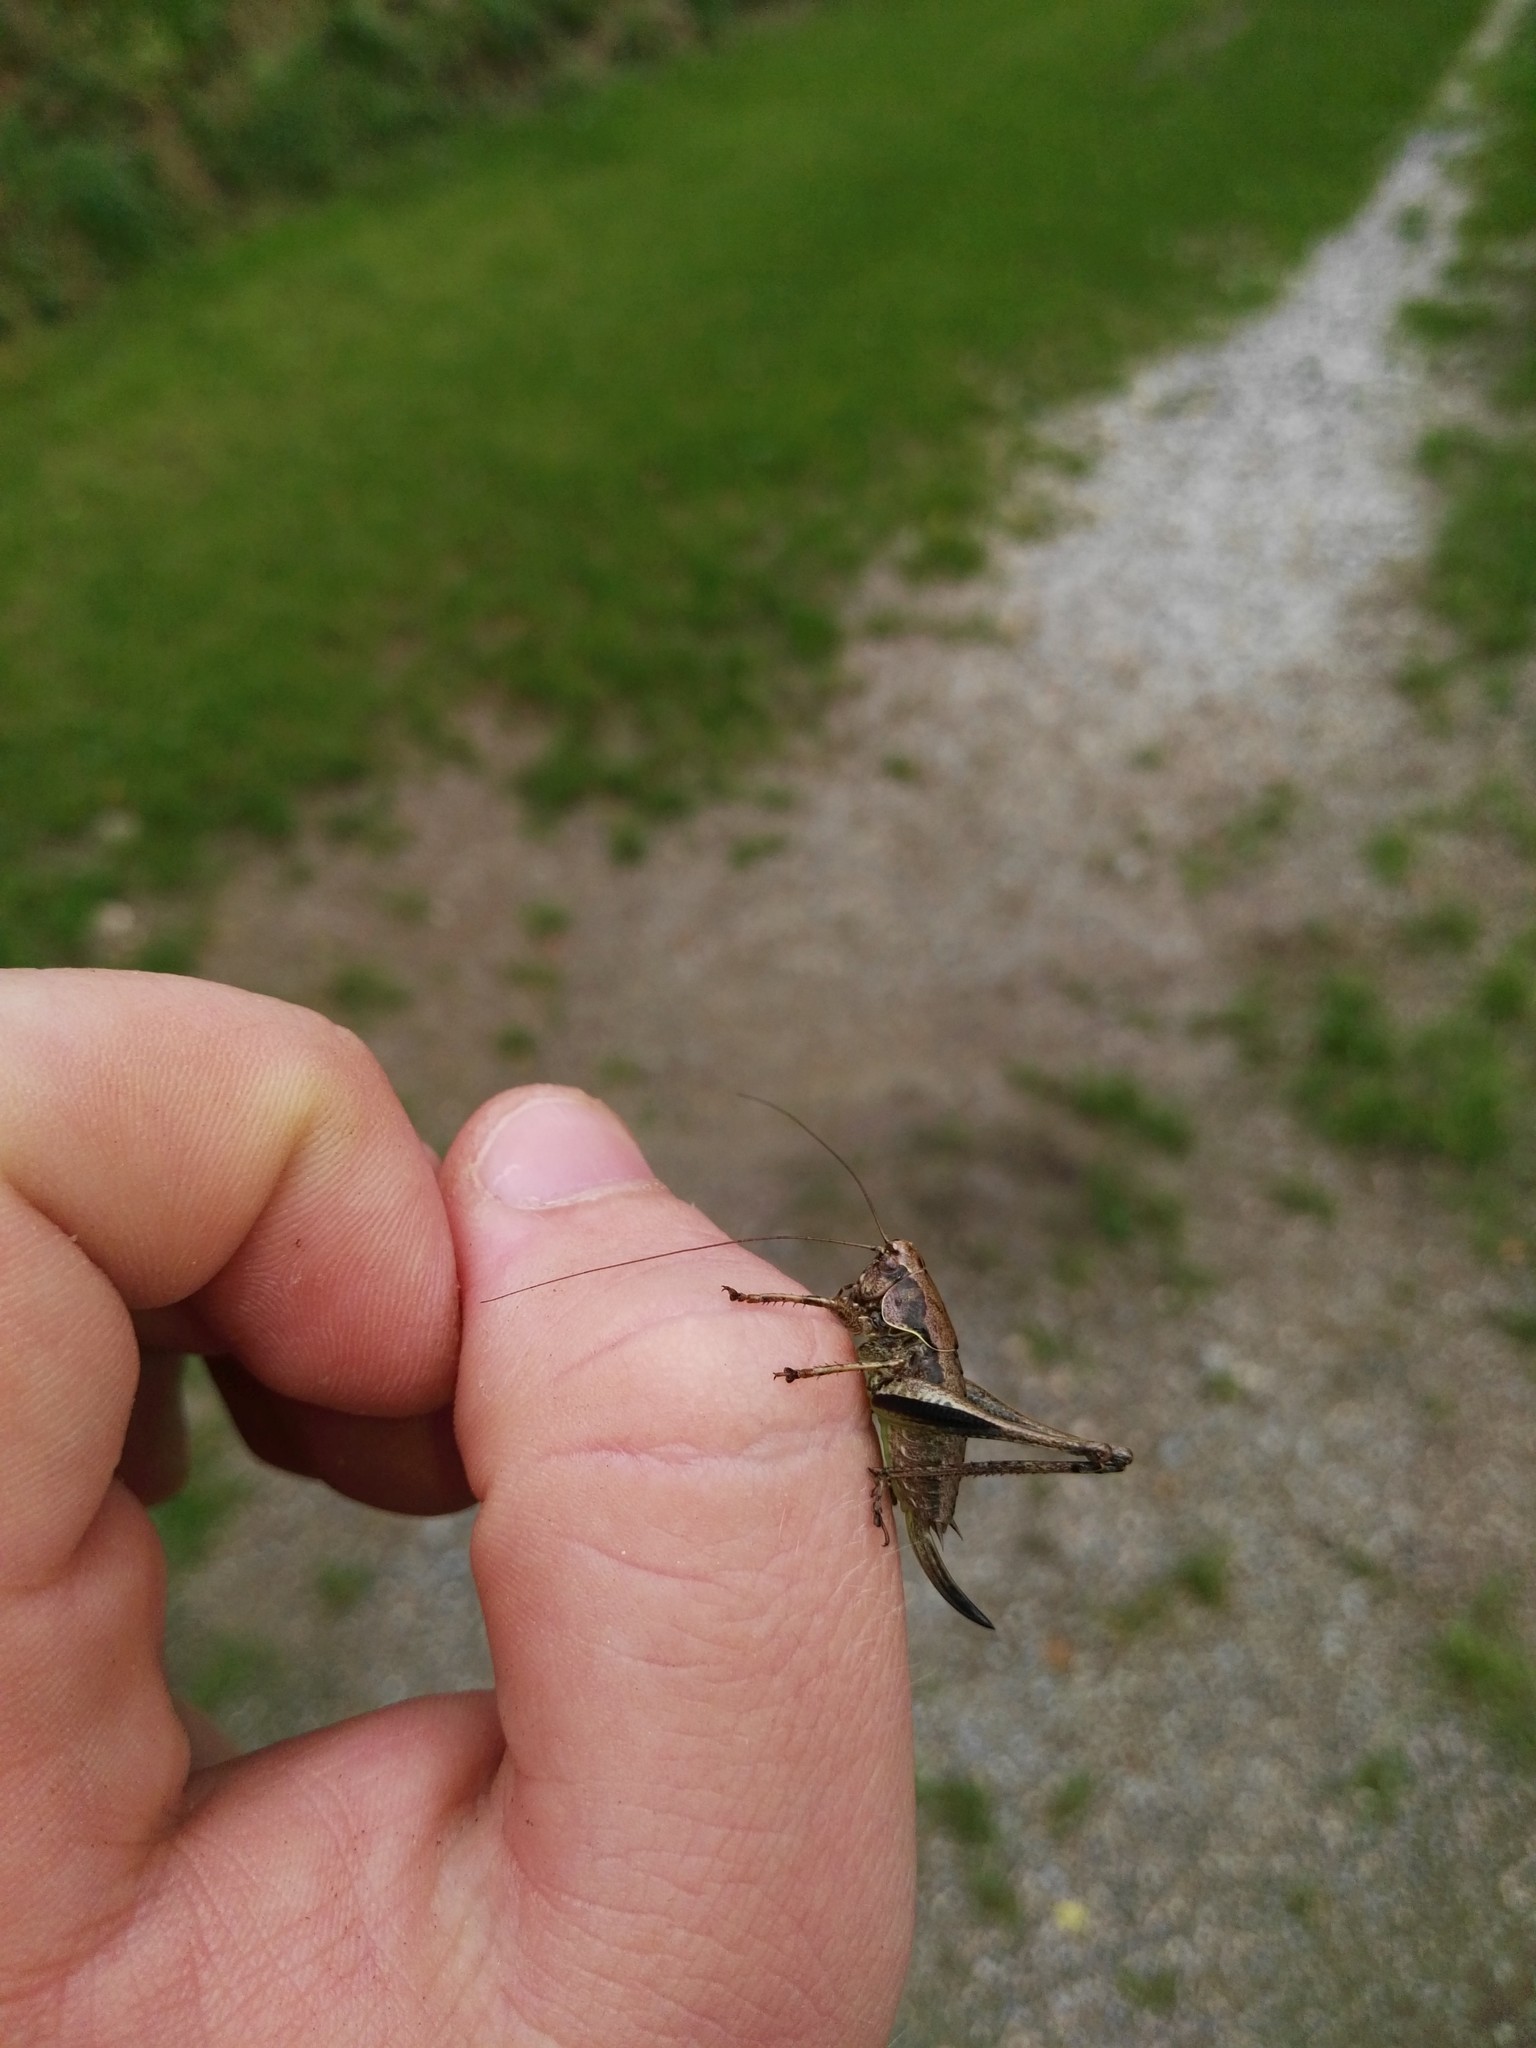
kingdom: Animalia
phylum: Arthropoda
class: Insecta
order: Orthoptera
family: Tettigoniidae
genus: Pholidoptera
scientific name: Pholidoptera griseoaptera
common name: Dark bush-cricket
